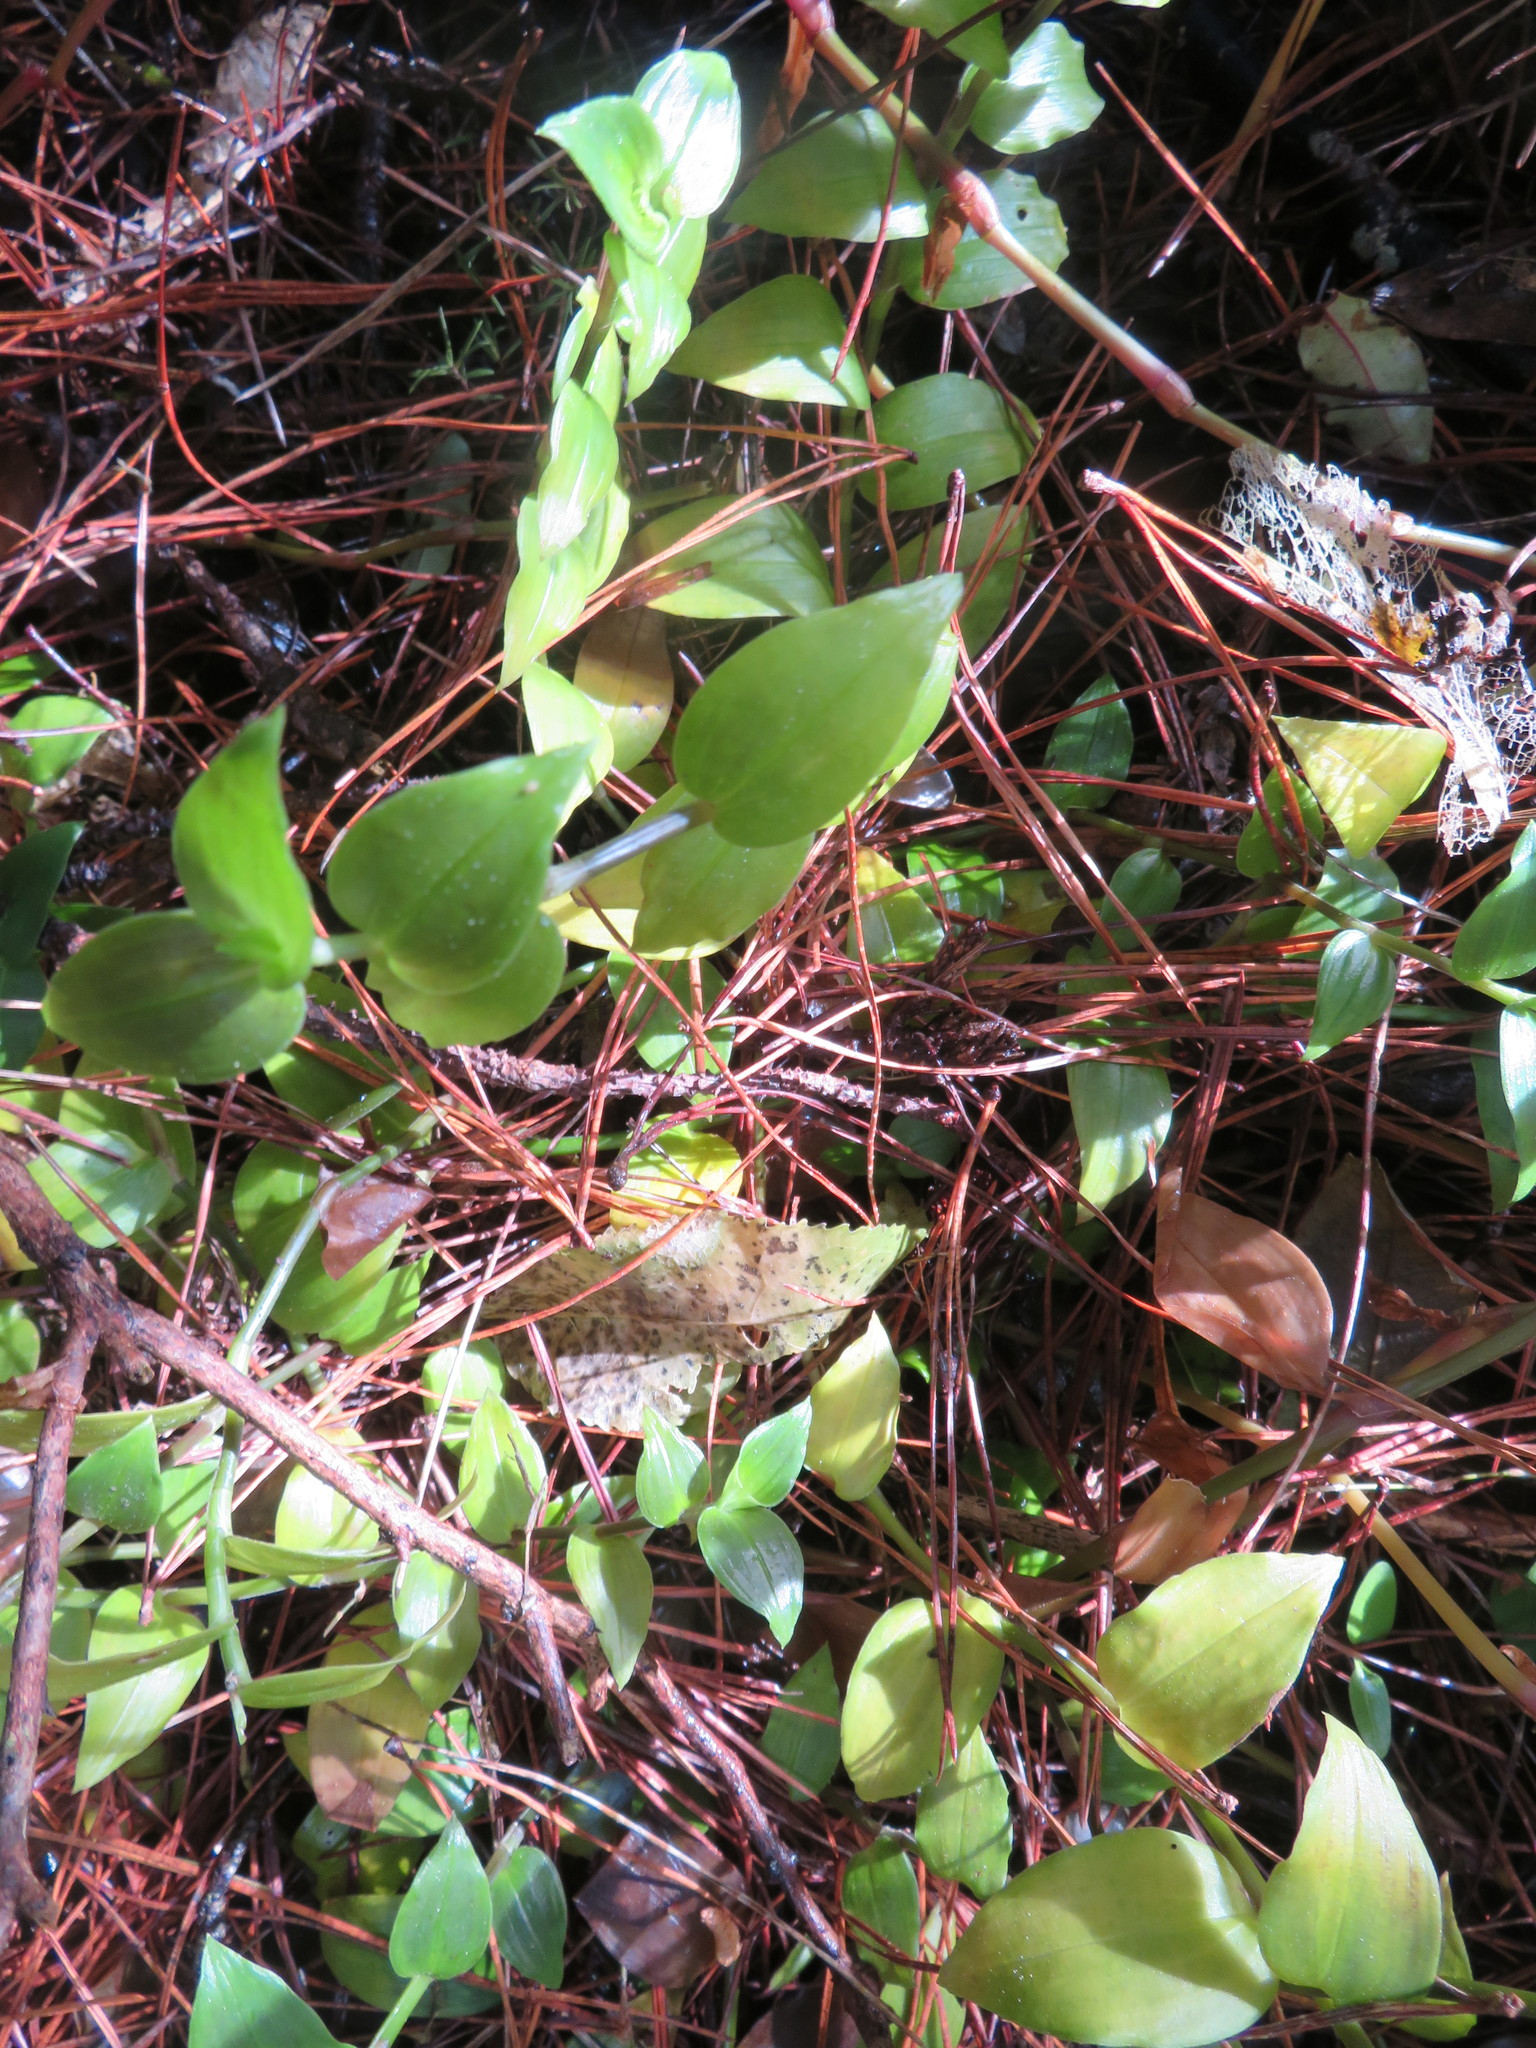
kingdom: Plantae
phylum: Tracheophyta
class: Liliopsida
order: Commelinales
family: Commelinaceae
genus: Tradescantia
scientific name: Tradescantia fluminensis
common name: Wandering-jew
